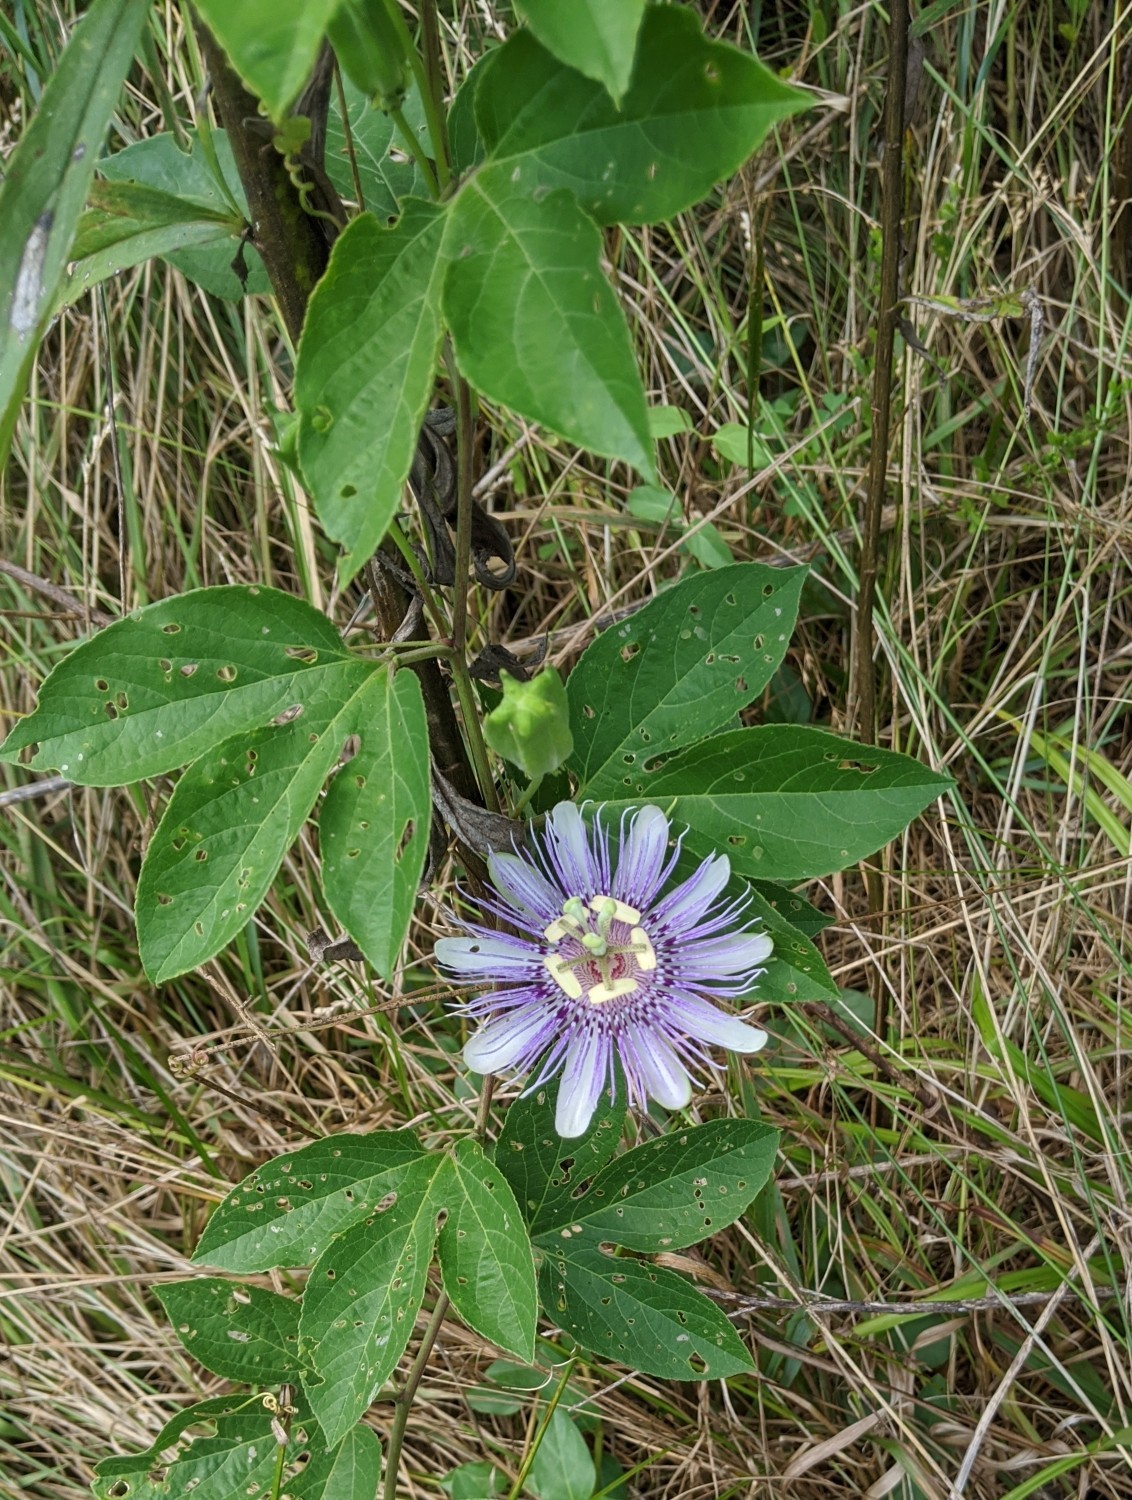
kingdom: Plantae
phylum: Tracheophyta
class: Magnoliopsida
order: Malpighiales
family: Passifloraceae
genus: Passiflora
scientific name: Passiflora incarnata
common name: Apricot-vine
